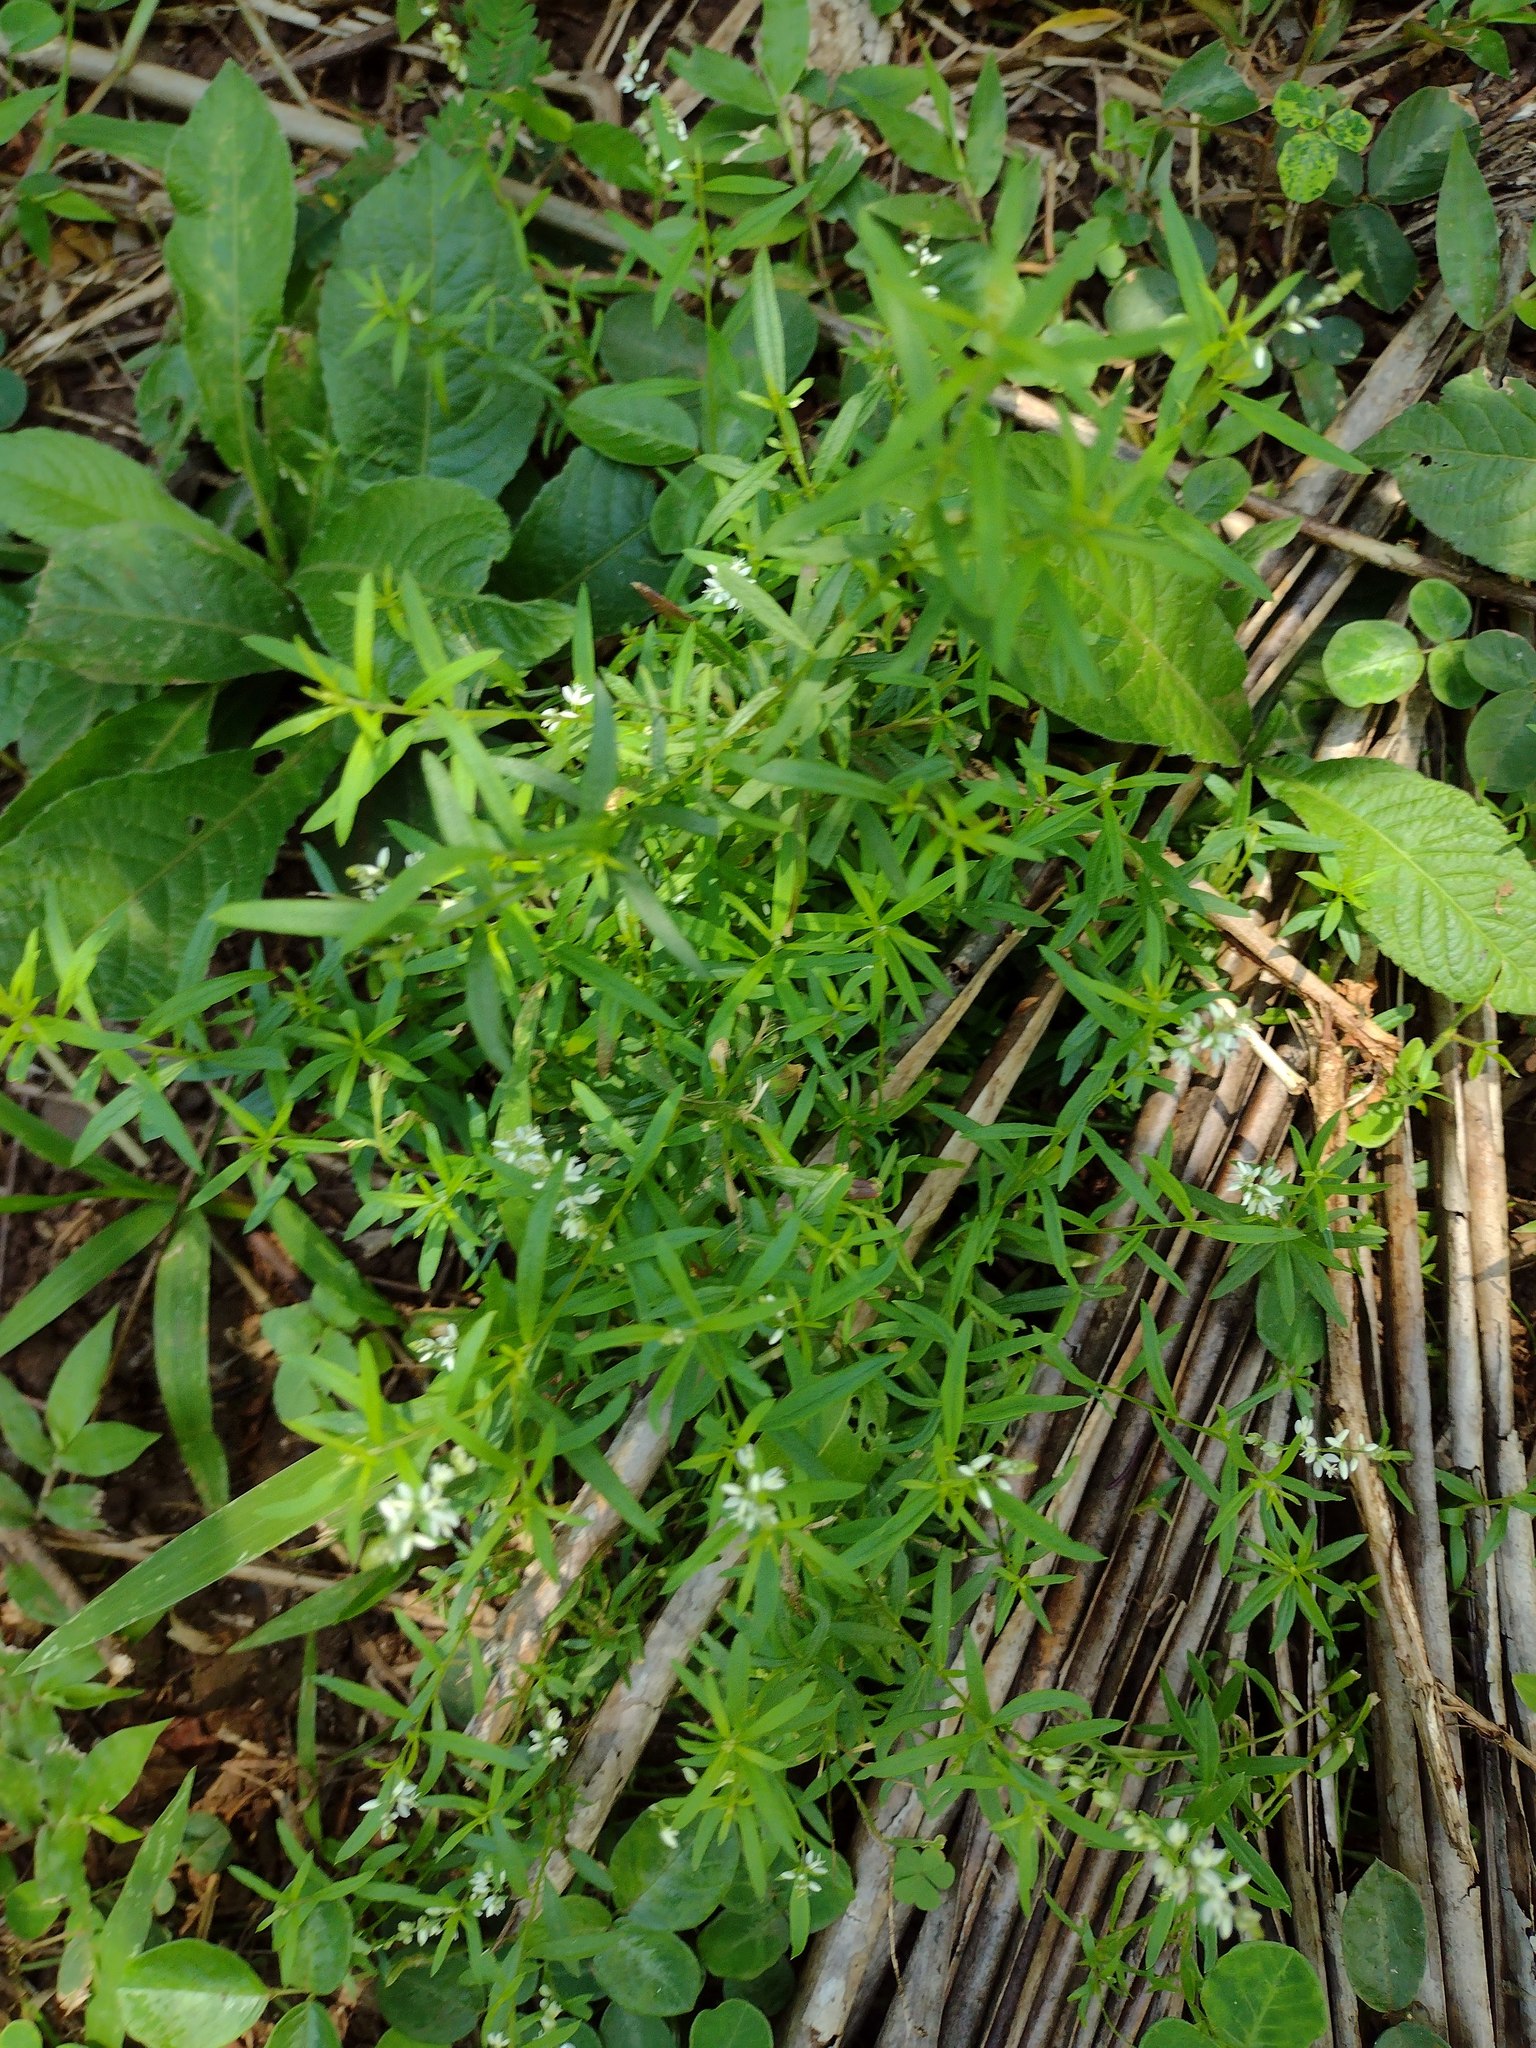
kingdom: Plantae
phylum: Tracheophyta
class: Magnoliopsida
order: Fabales
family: Polygalaceae
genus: Polygala
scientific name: Polygala paniculata
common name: Orosne
